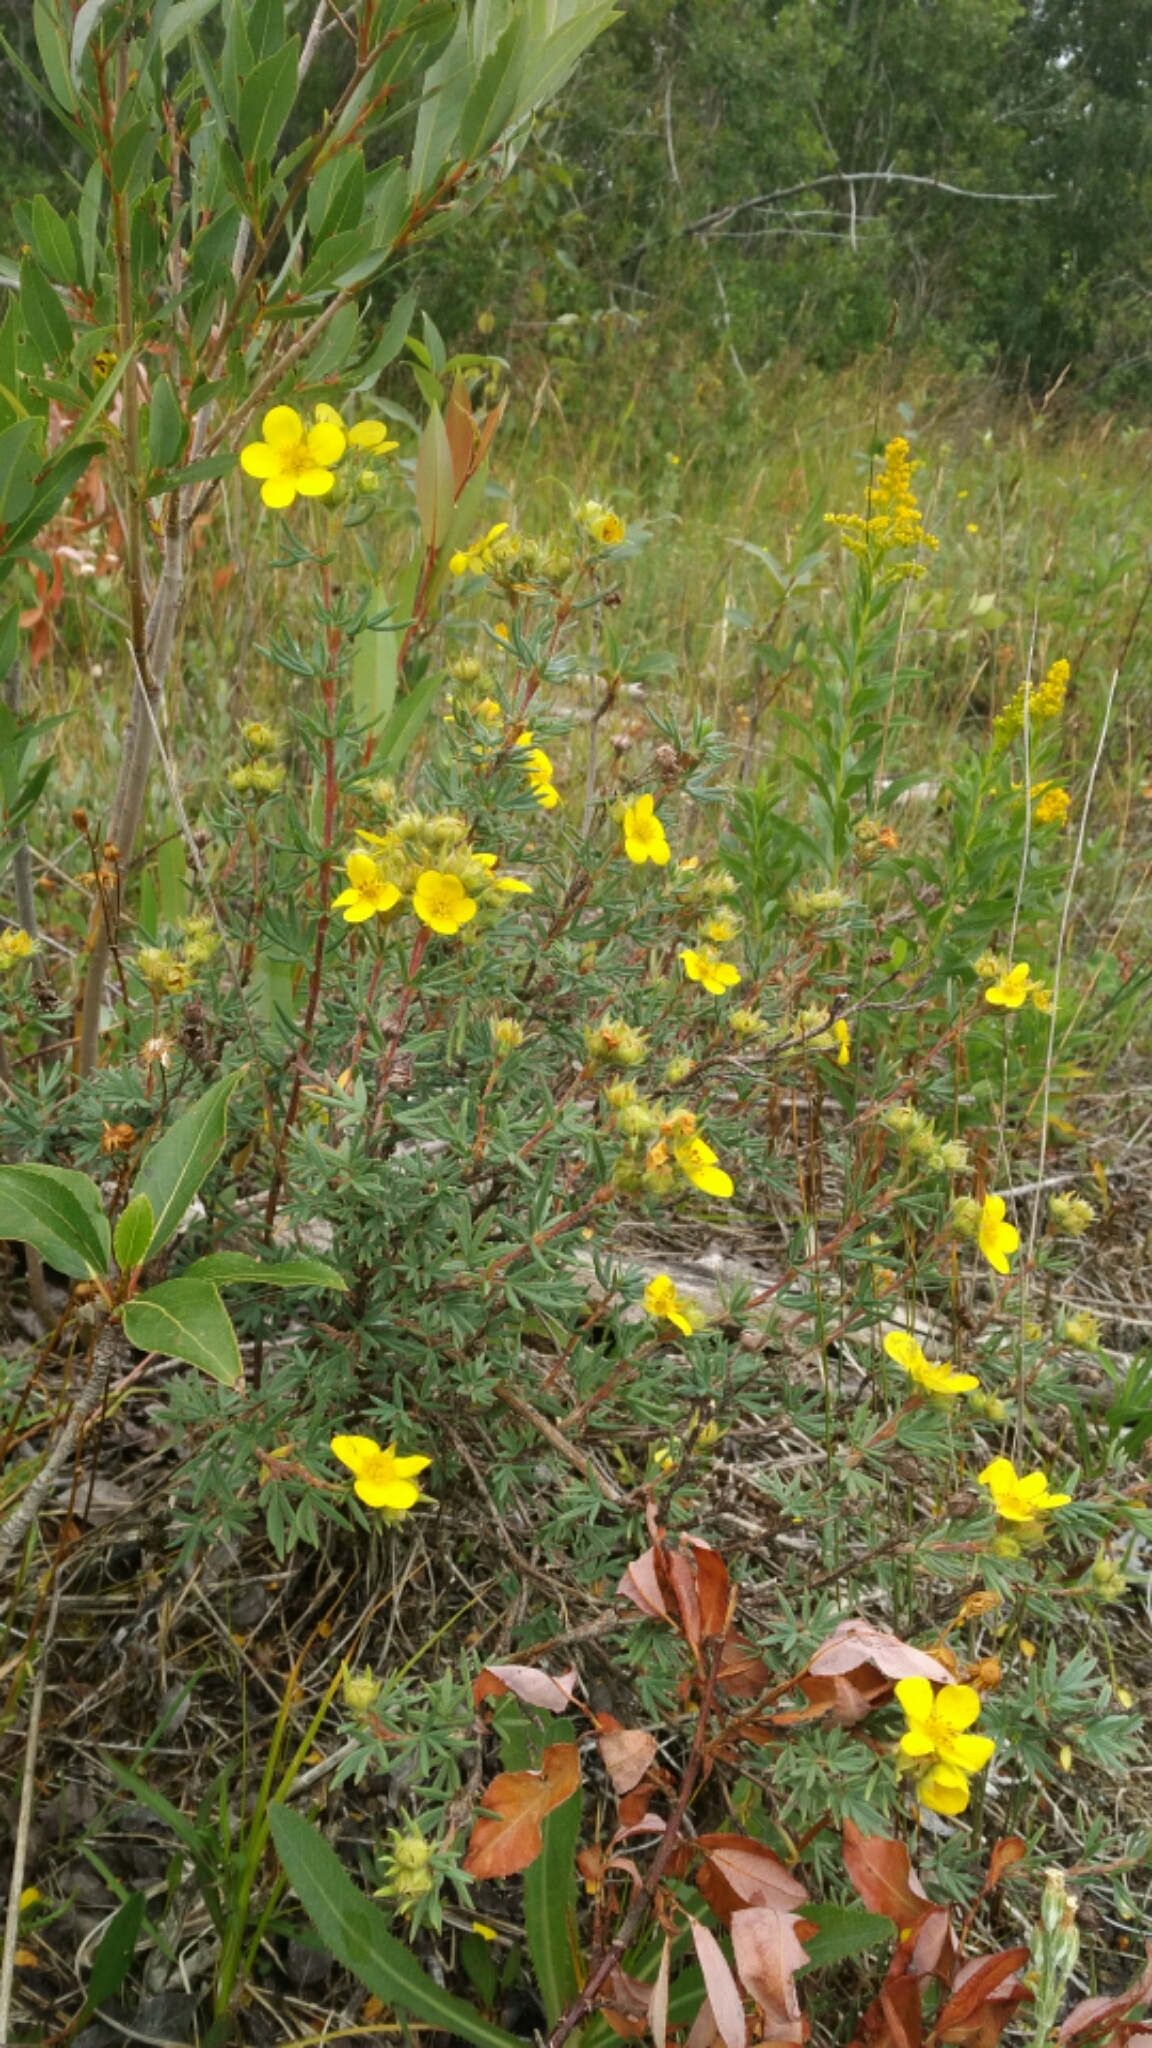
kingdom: Plantae
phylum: Tracheophyta
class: Magnoliopsida
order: Rosales
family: Rosaceae
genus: Dasiphora
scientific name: Dasiphora fruticosa
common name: Shrubby cinquefoil
